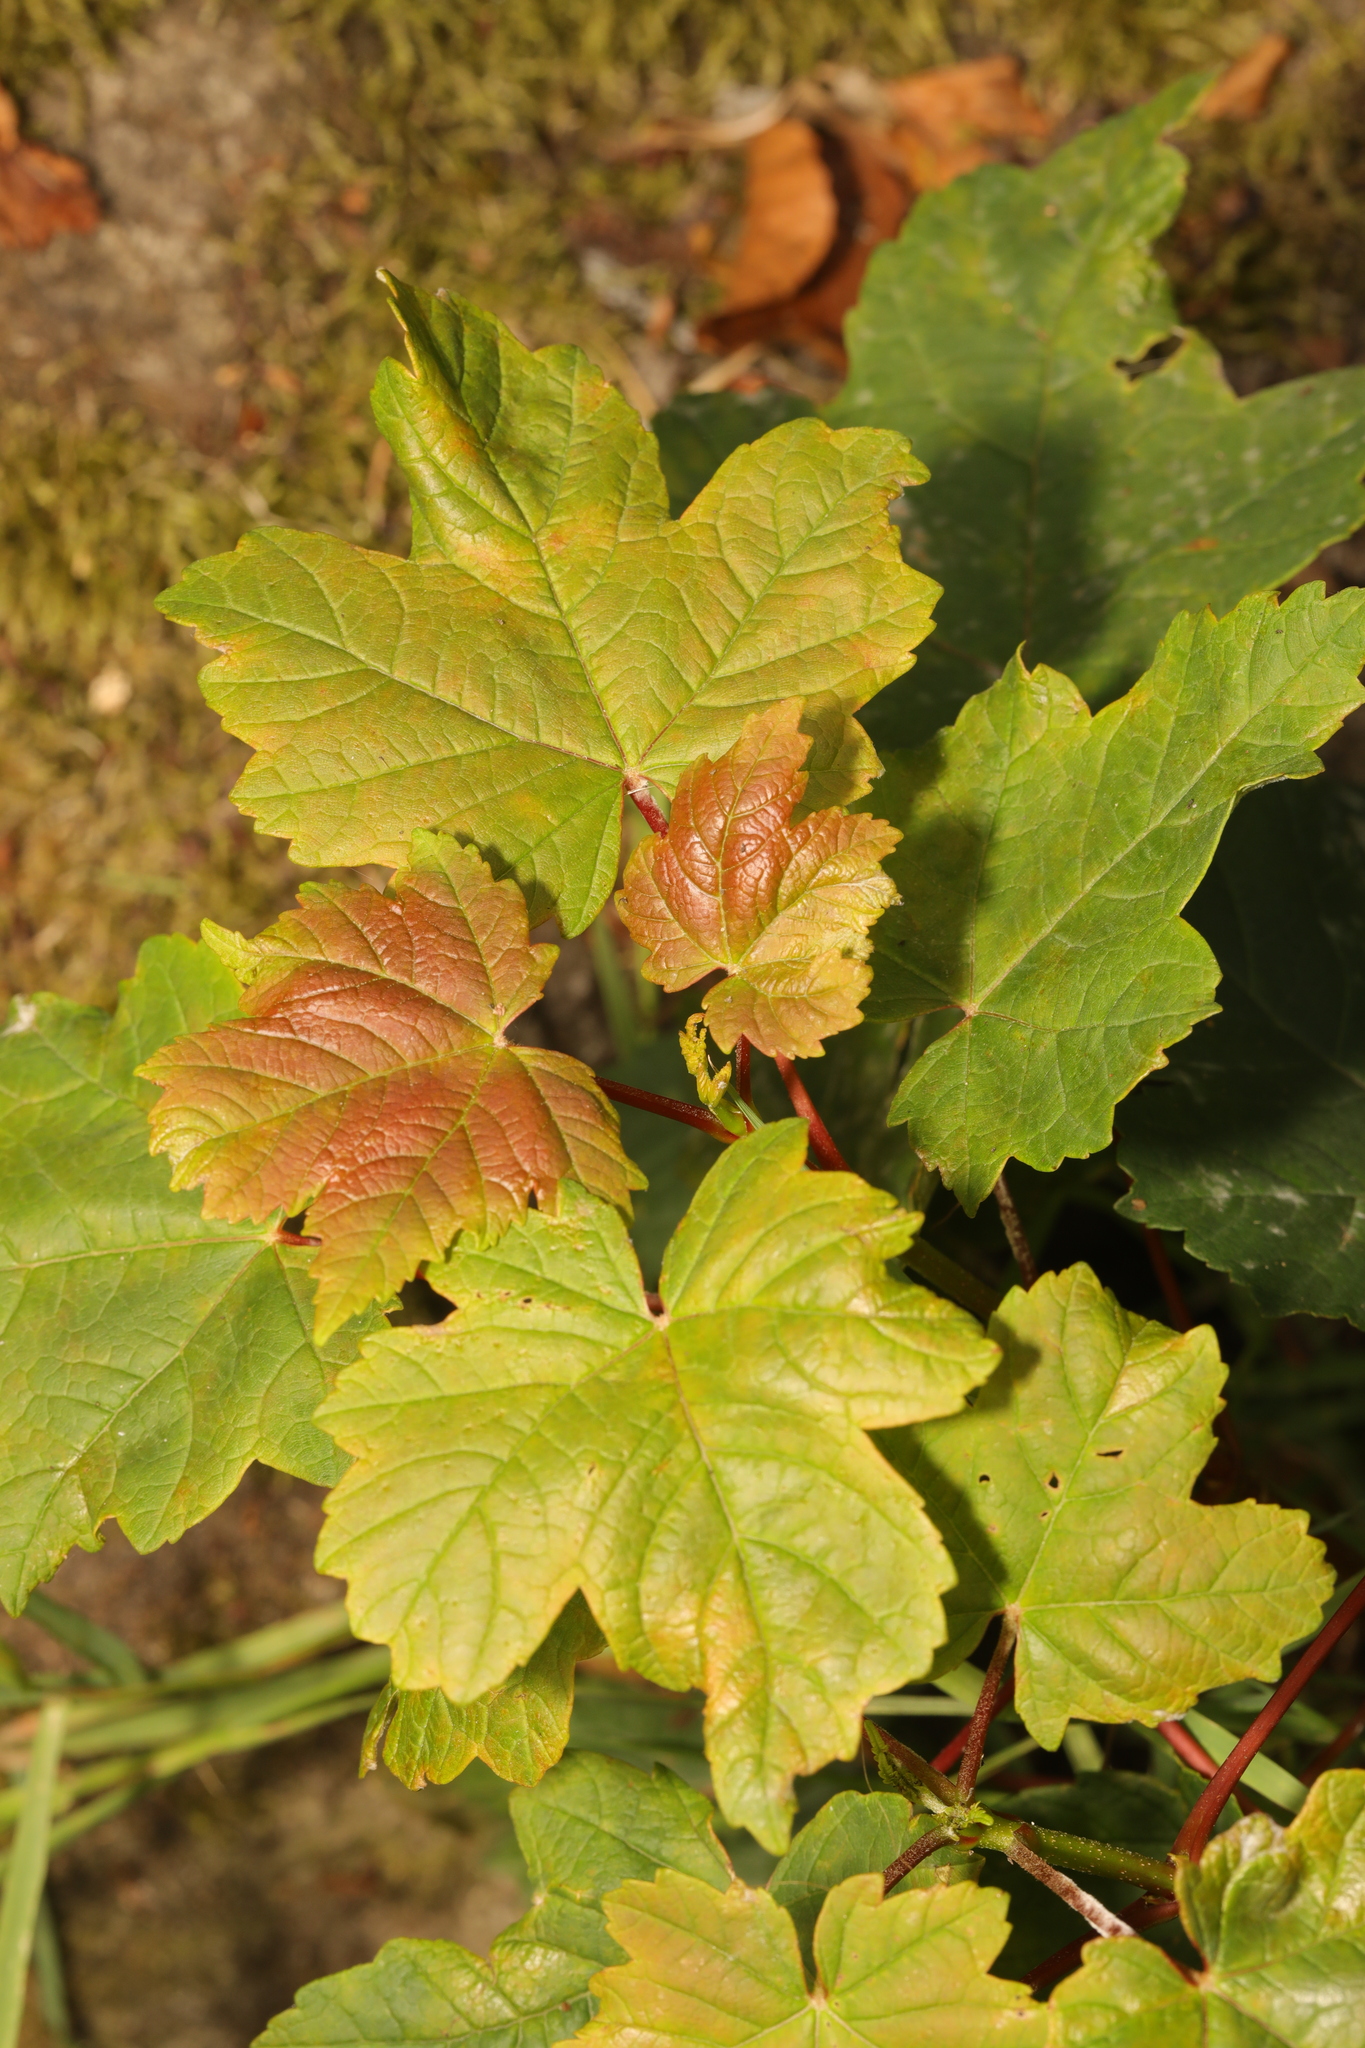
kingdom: Plantae
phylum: Tracheophyta
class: Magnoliopsida
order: Sapindales
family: Sapindaceae
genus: Acer
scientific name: Acer pseudoplatanus
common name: Sycamore
